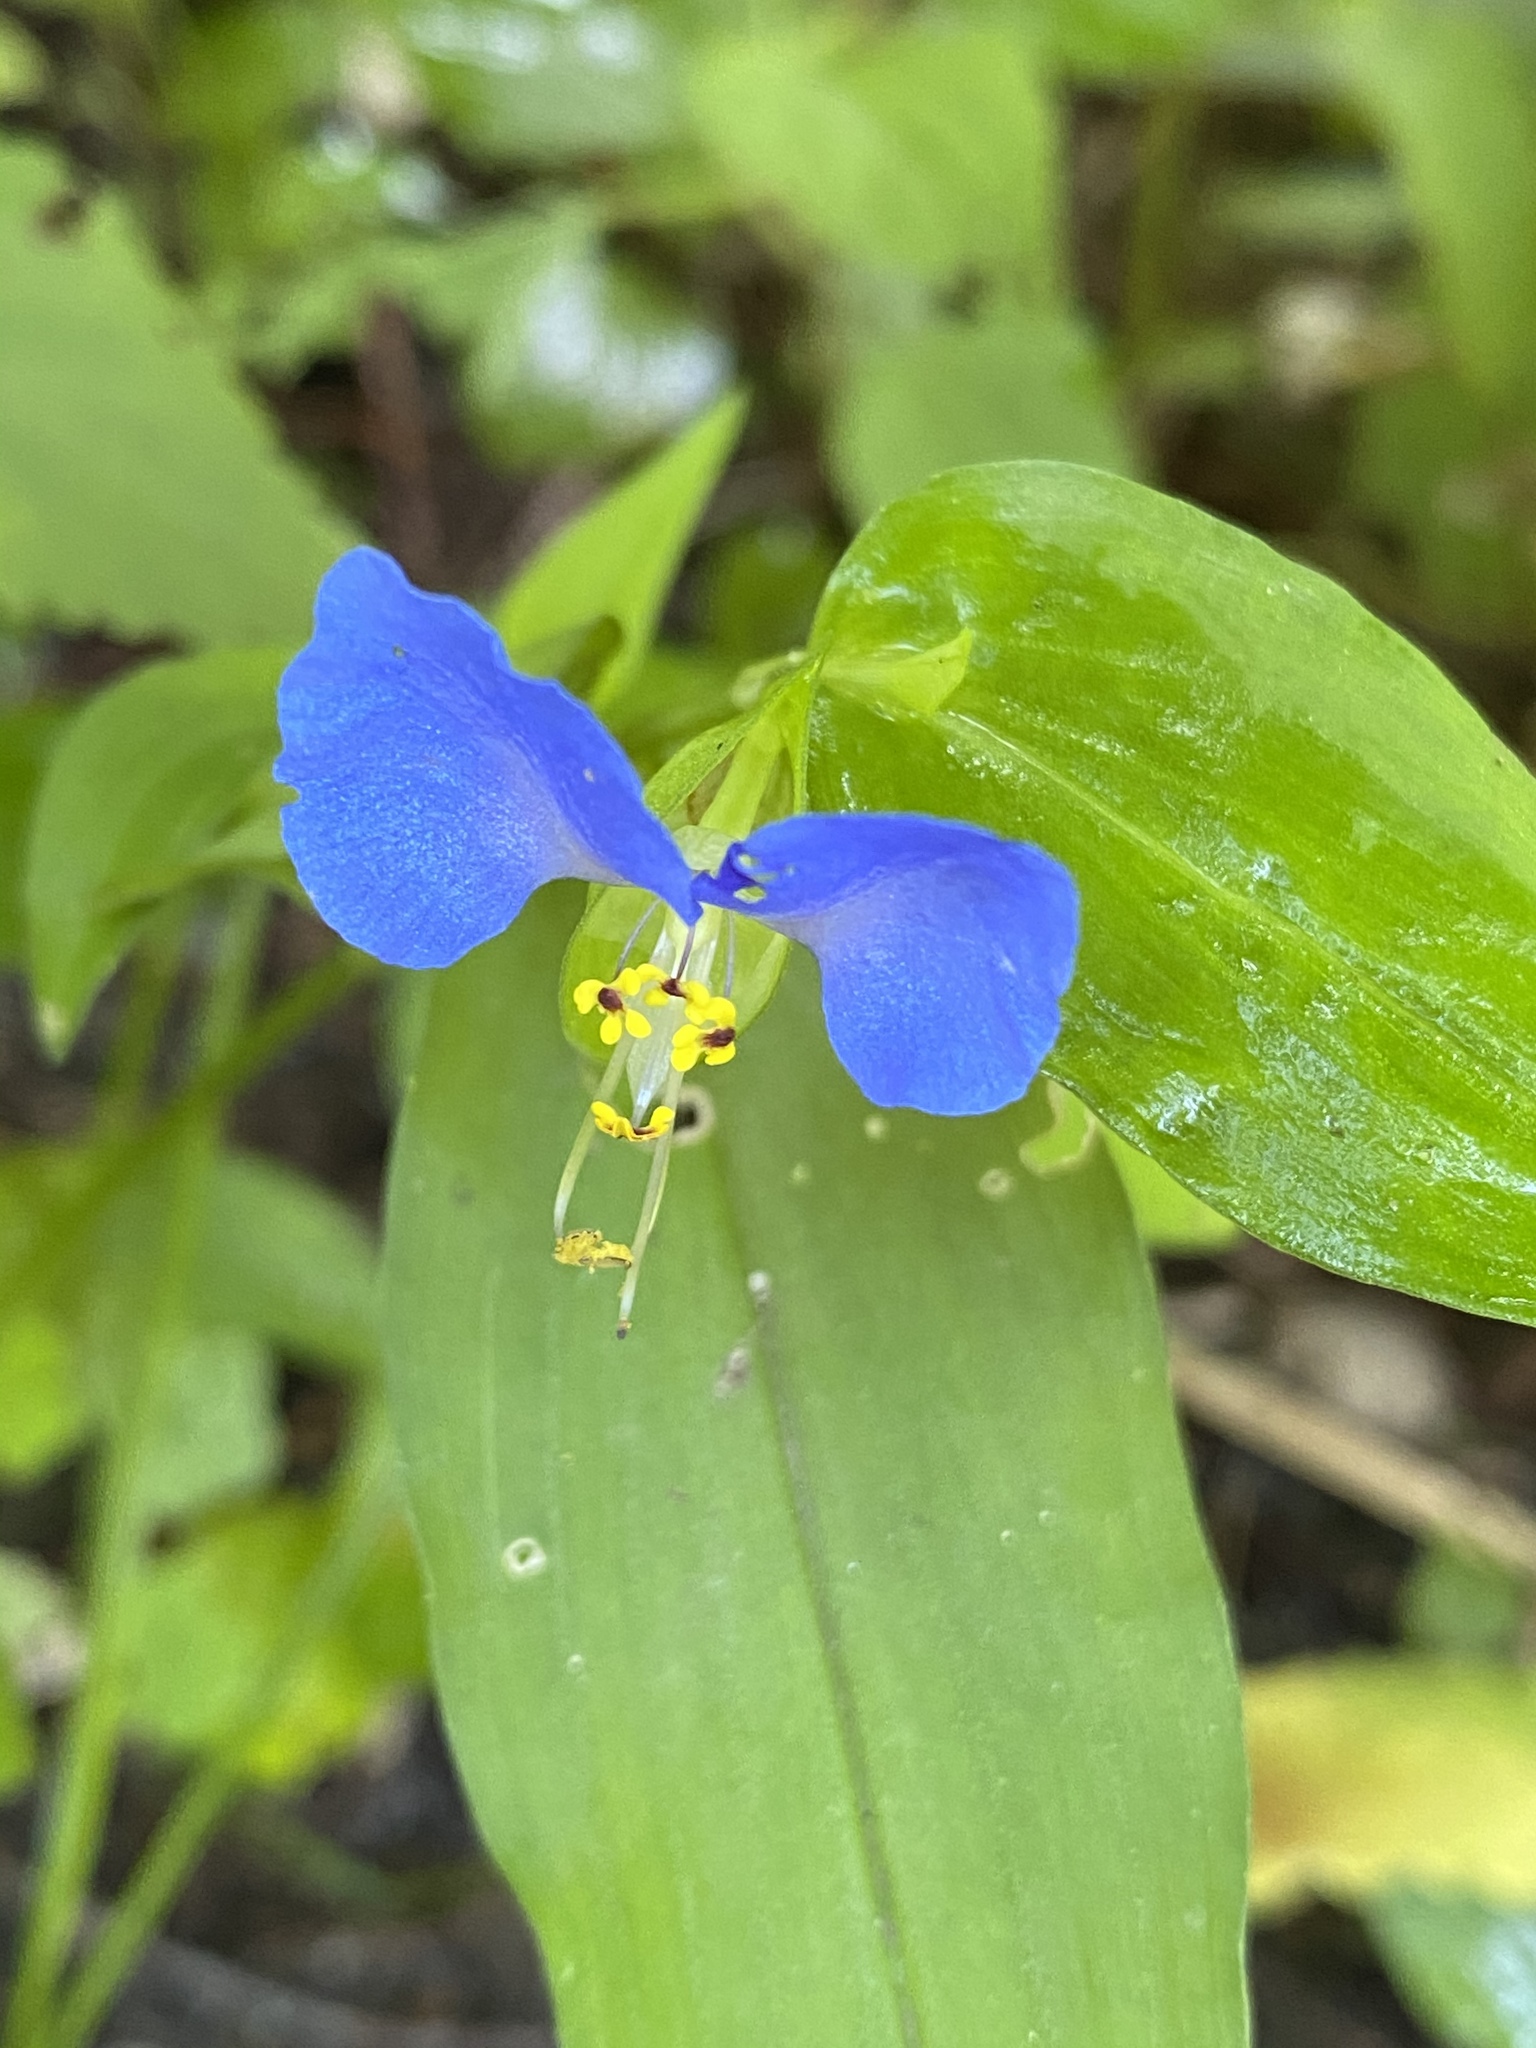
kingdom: Plantae
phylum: Tracheophyta
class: Liliopsida
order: Commelinales
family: Commelinaceae
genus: Commelina
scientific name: Commelina communis
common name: Asiatic dayflower
